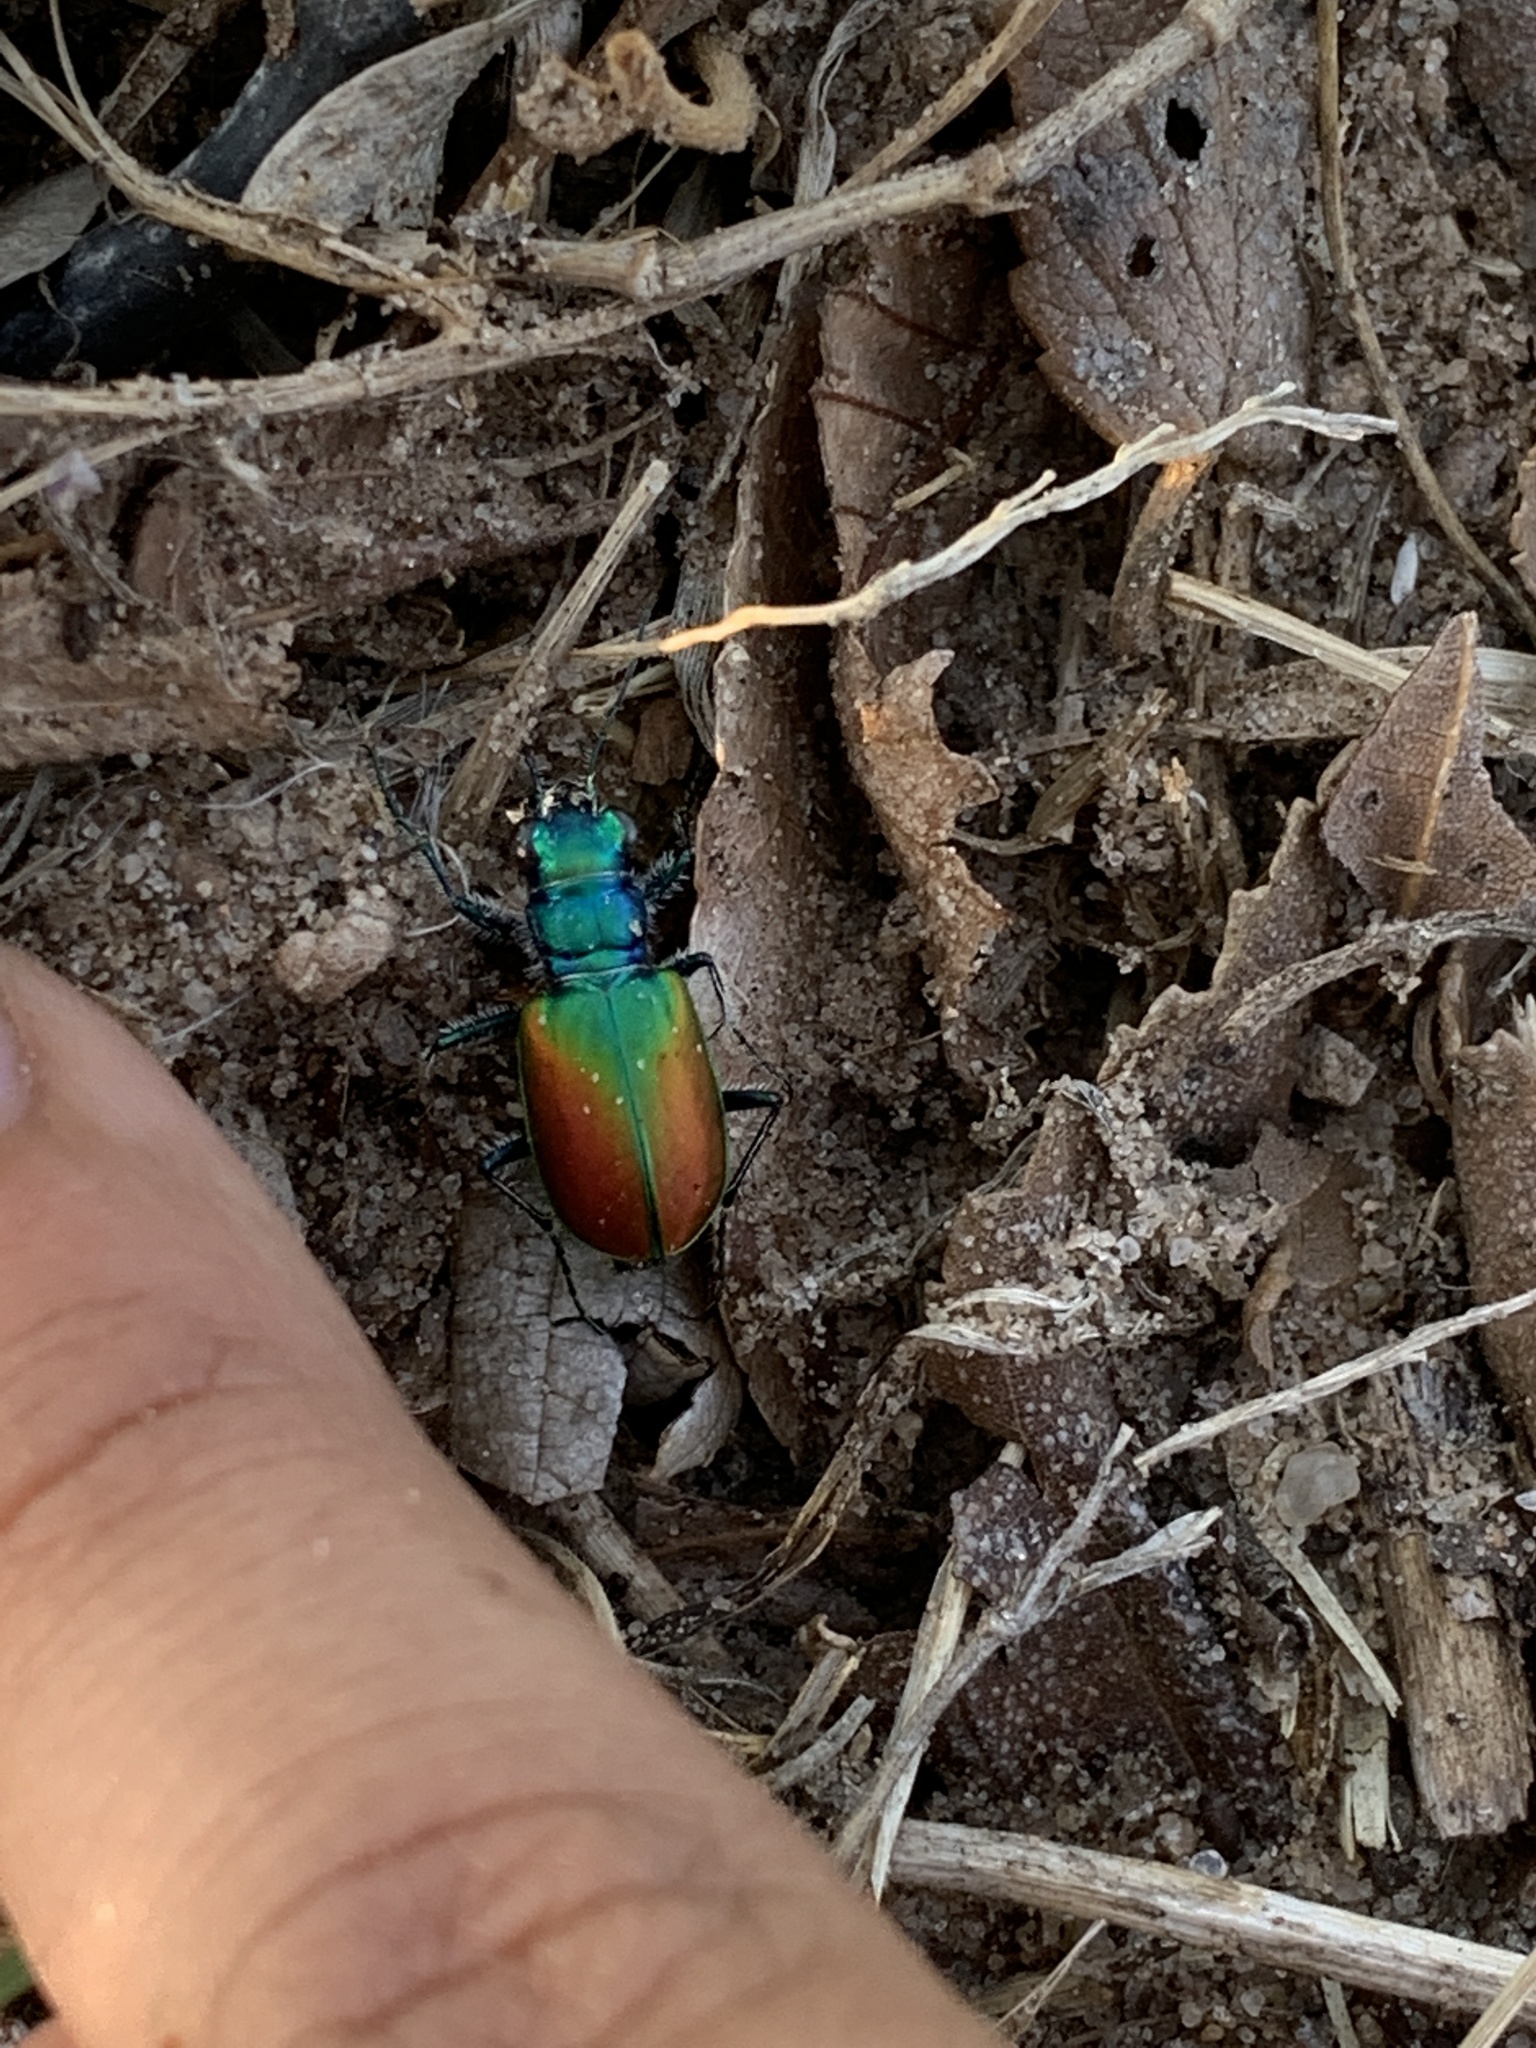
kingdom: Animalia
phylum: Arthropoda
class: Insecta
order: Coleoptera
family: Carabidae
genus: Cicindela
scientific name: Cicindela scutellaris
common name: Festive tiger beetle
